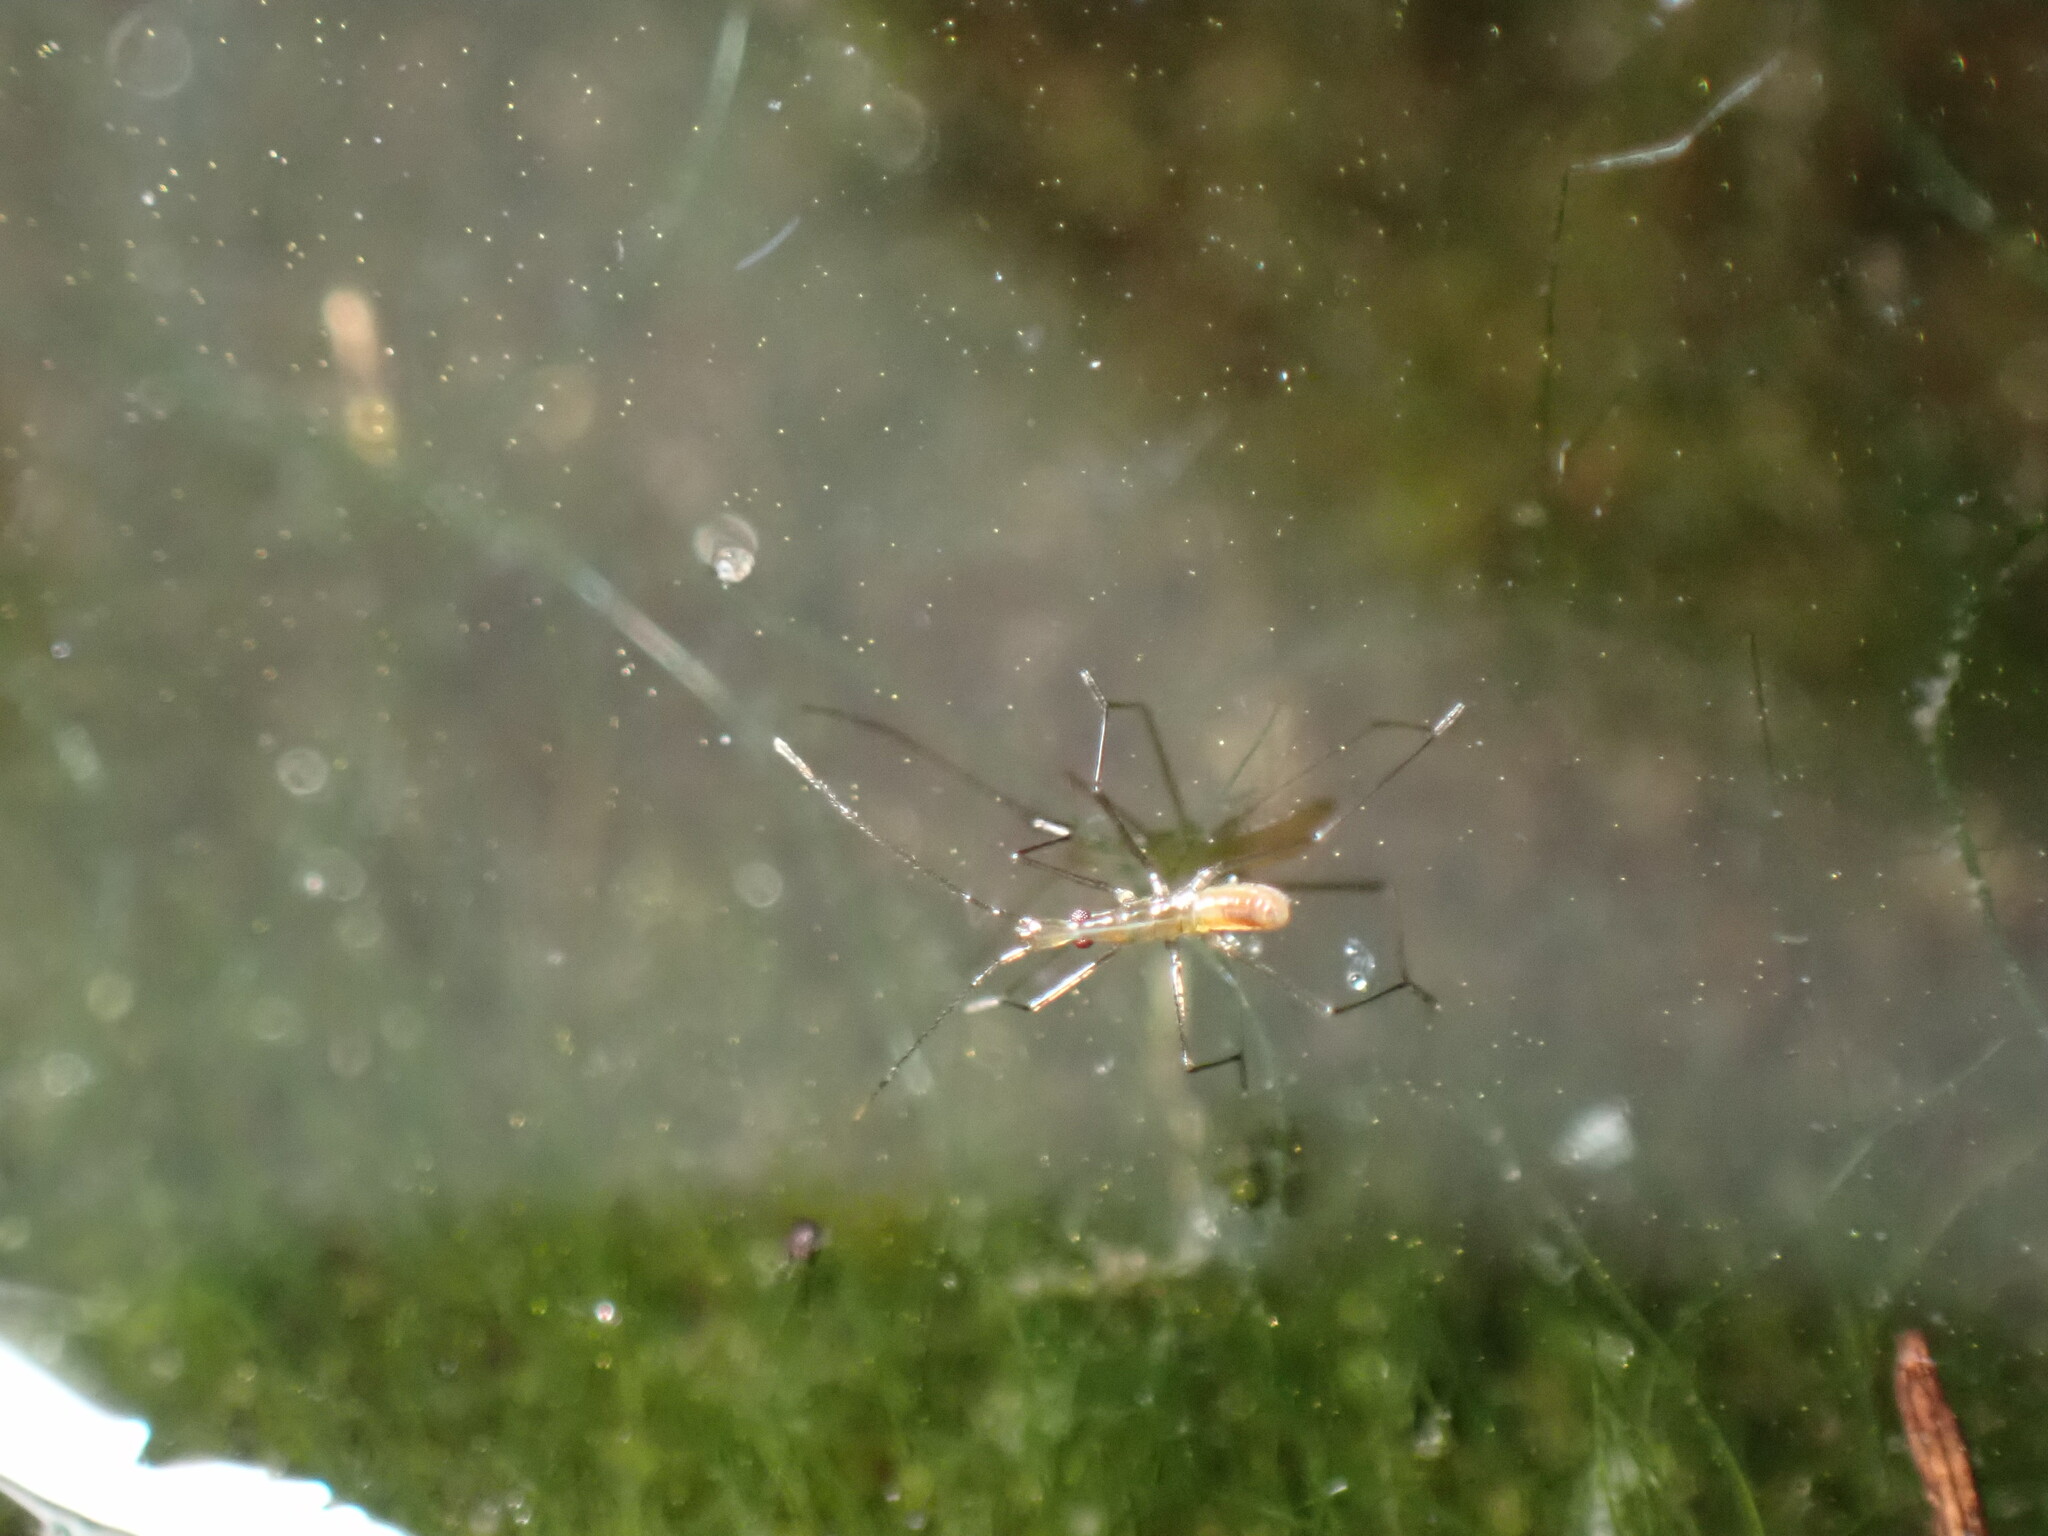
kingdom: Animalia
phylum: Arthropoda
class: Insecta
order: Hemiptera
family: Hydrometridae
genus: Hydrometra
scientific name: Hydrometra stagnorum
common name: Water measurer
